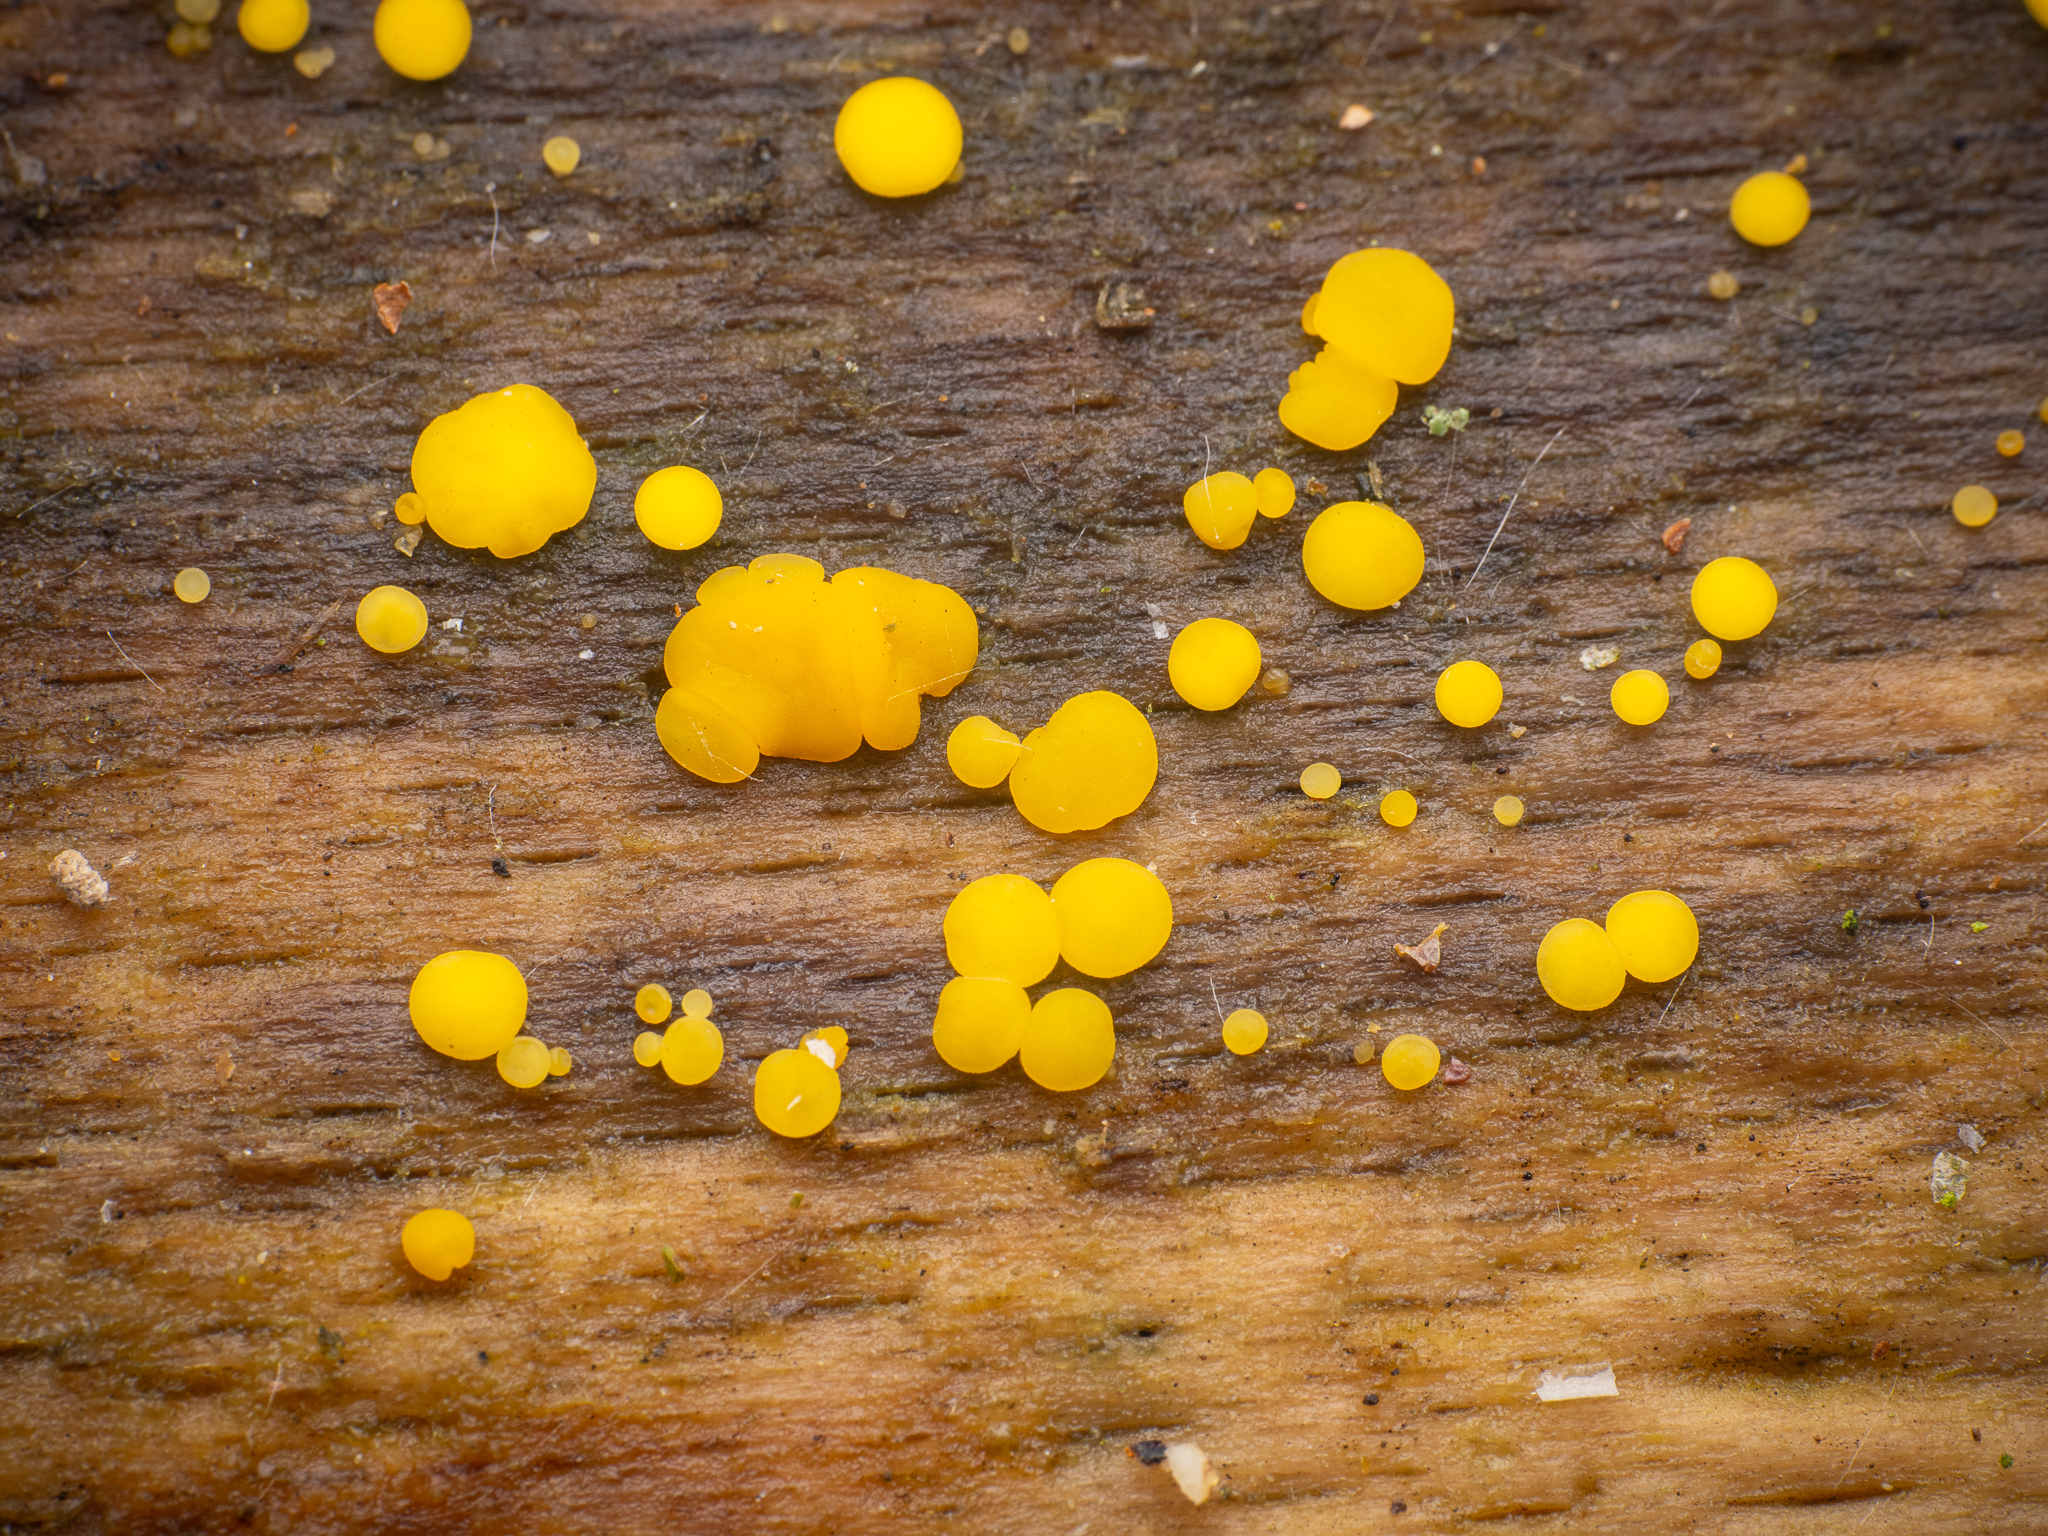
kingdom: Fungi
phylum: Ascomycota
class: Leotiomycetes
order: Helotiales
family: Pezizellaceae
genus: Calycina
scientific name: Calycina citrina
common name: Yellow fairy cups
